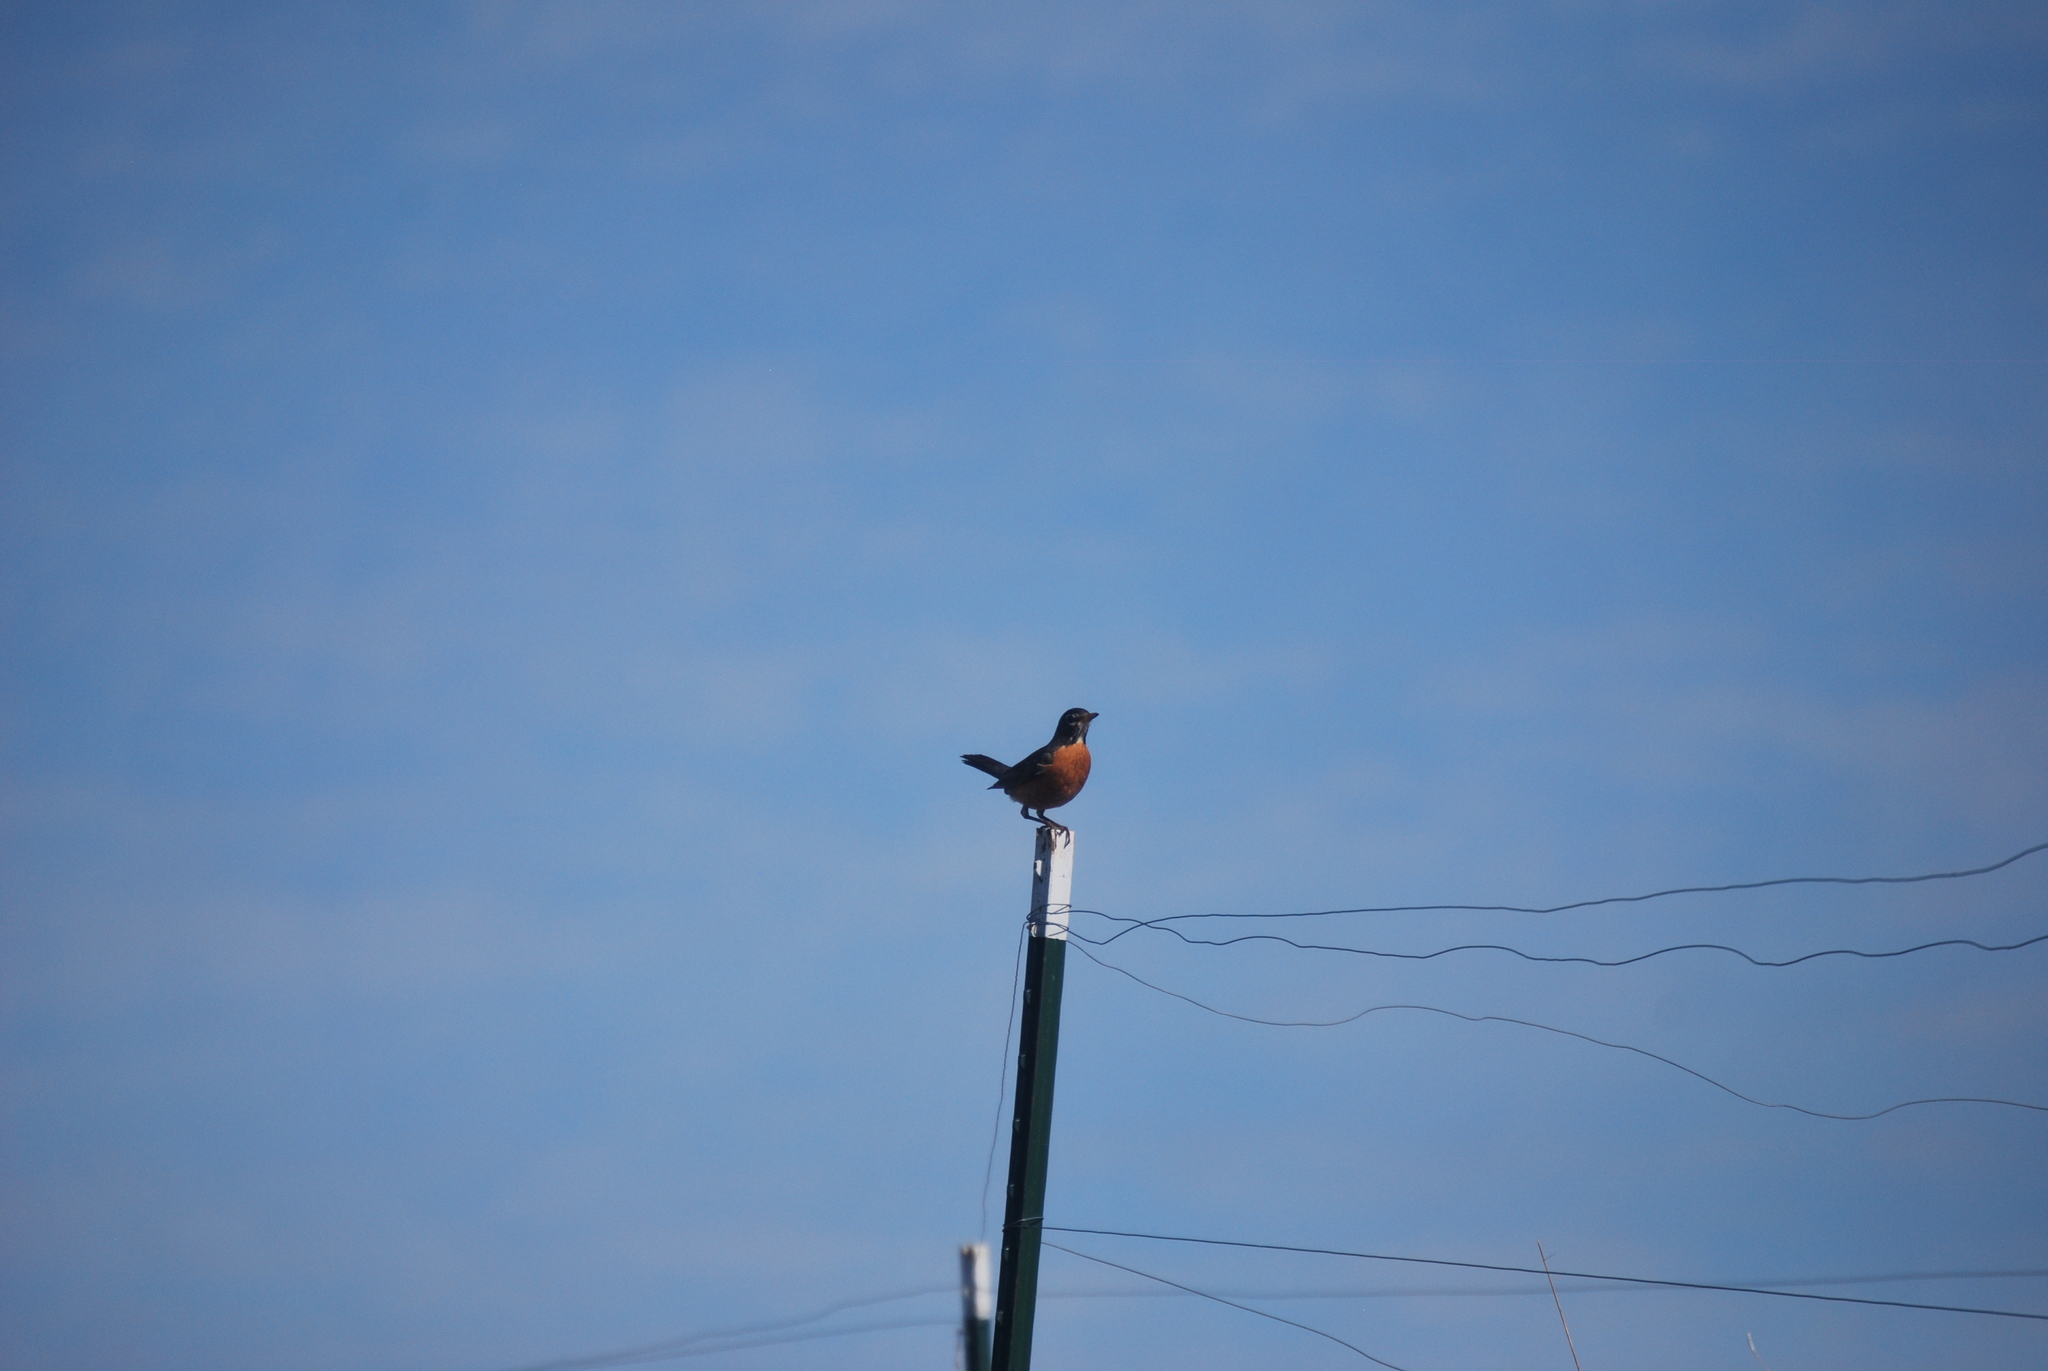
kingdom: Animalia
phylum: Chordata
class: Aves
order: Passeriformes
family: Turdidae
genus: Turdus
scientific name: Turdus migratorius
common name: American robin
